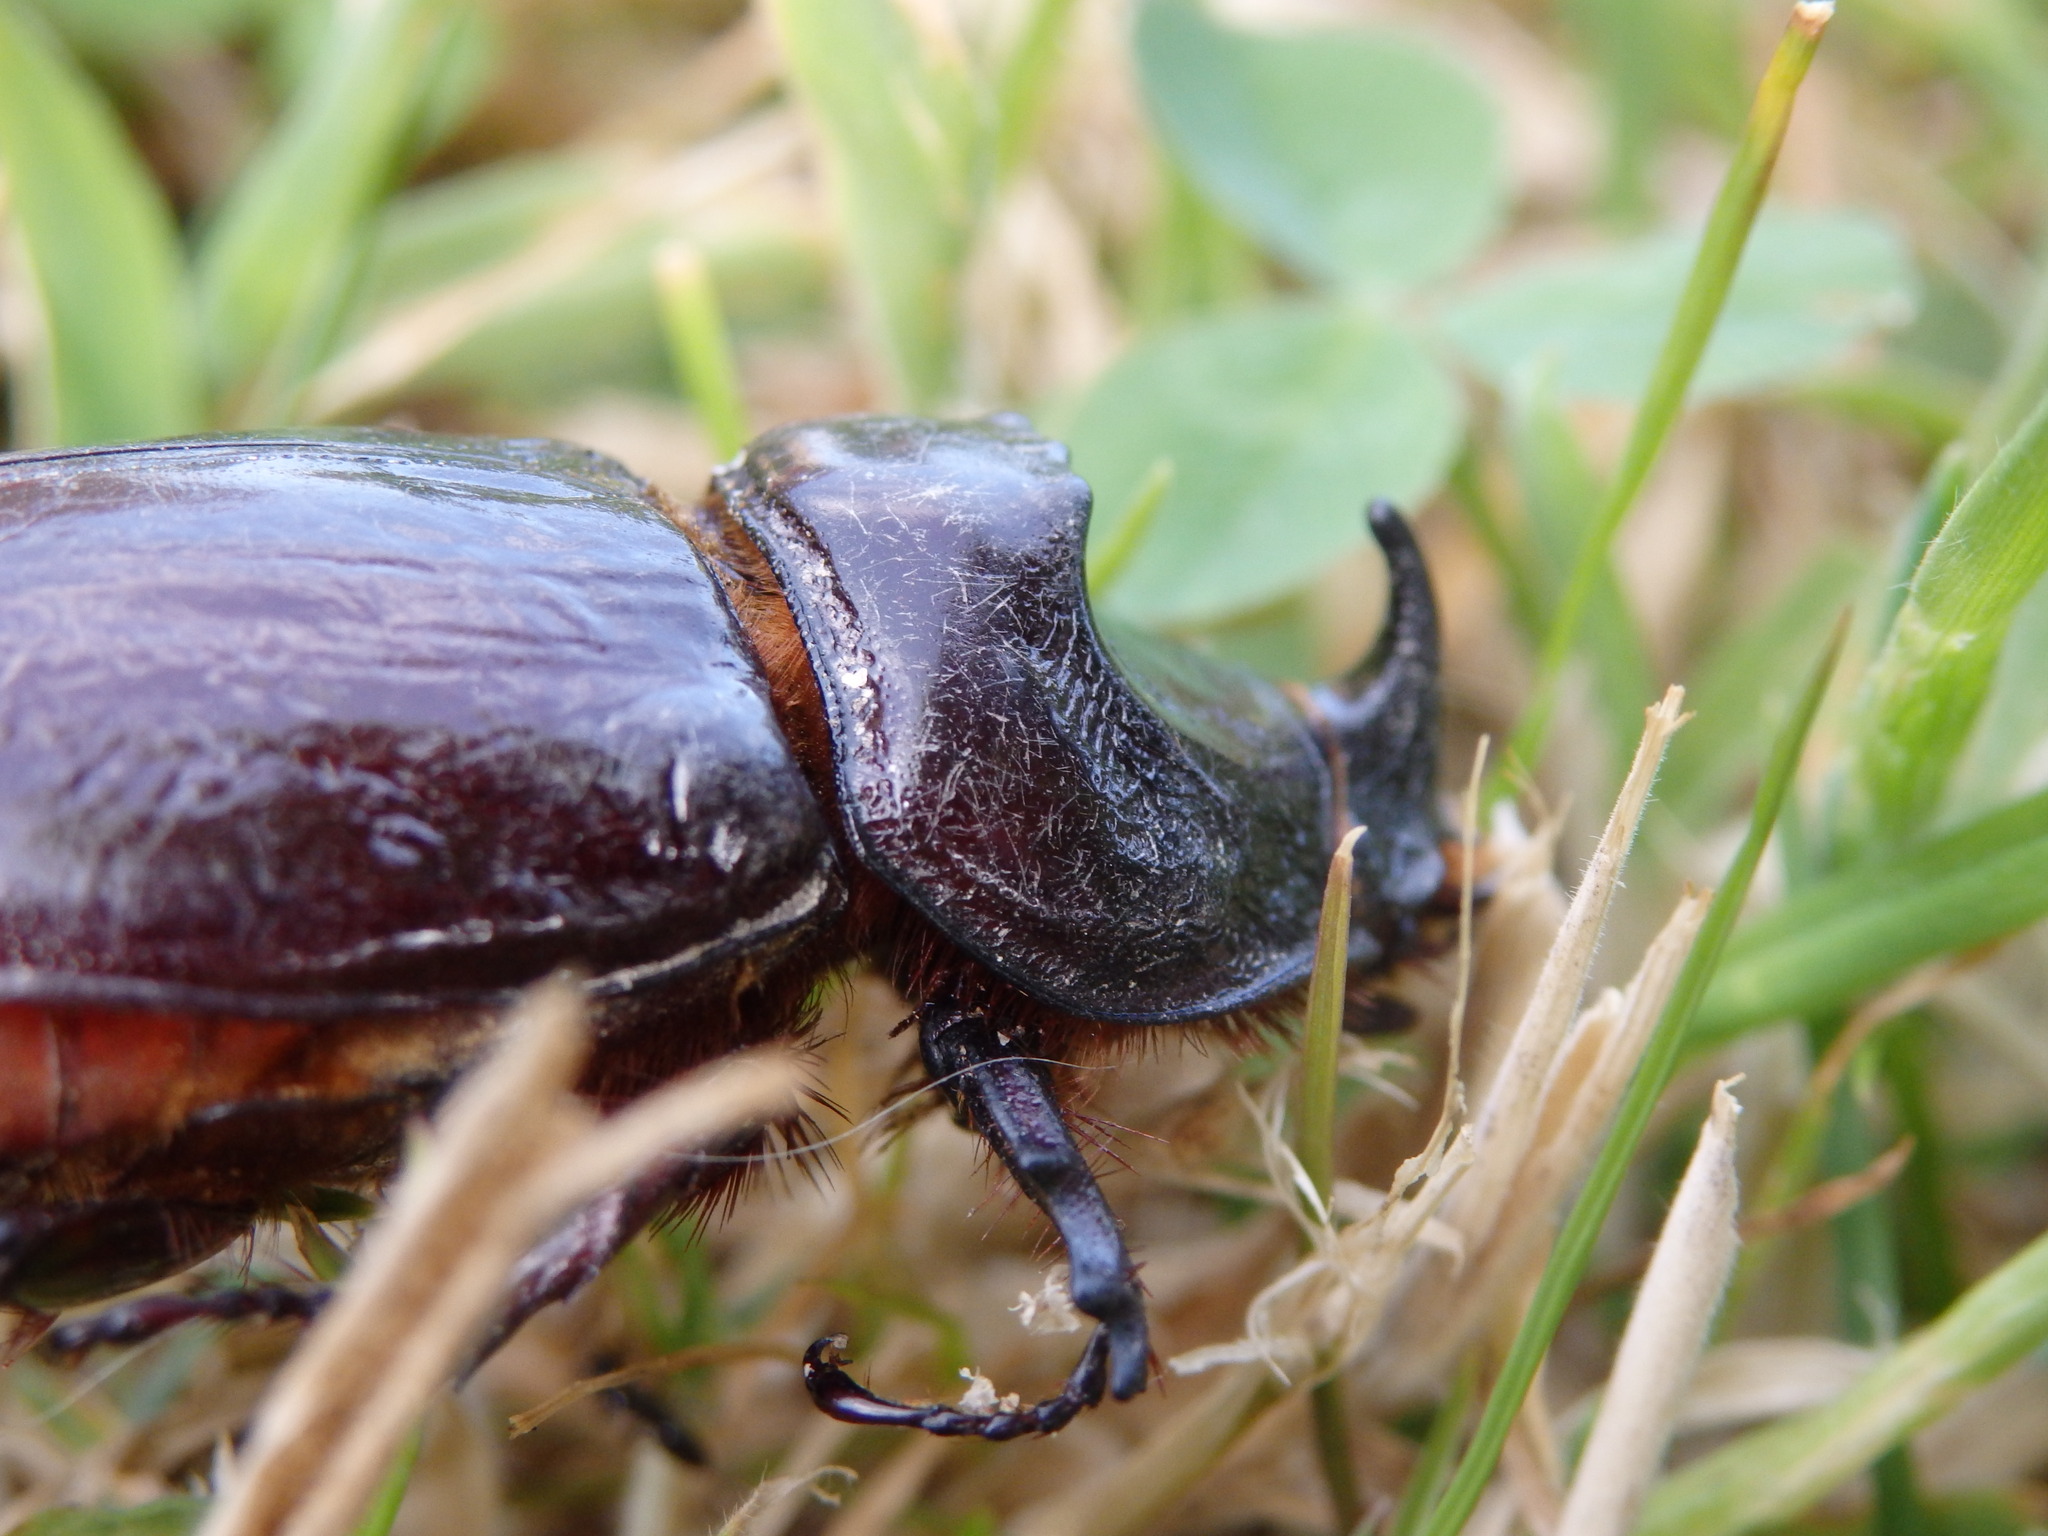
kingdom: Animalia
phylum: Arthropoda
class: Insecta
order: Coleoptera
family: Scarabaeidae
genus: Oryctes
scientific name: Oryctes nasicornis
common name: European rhinoceros beetle
